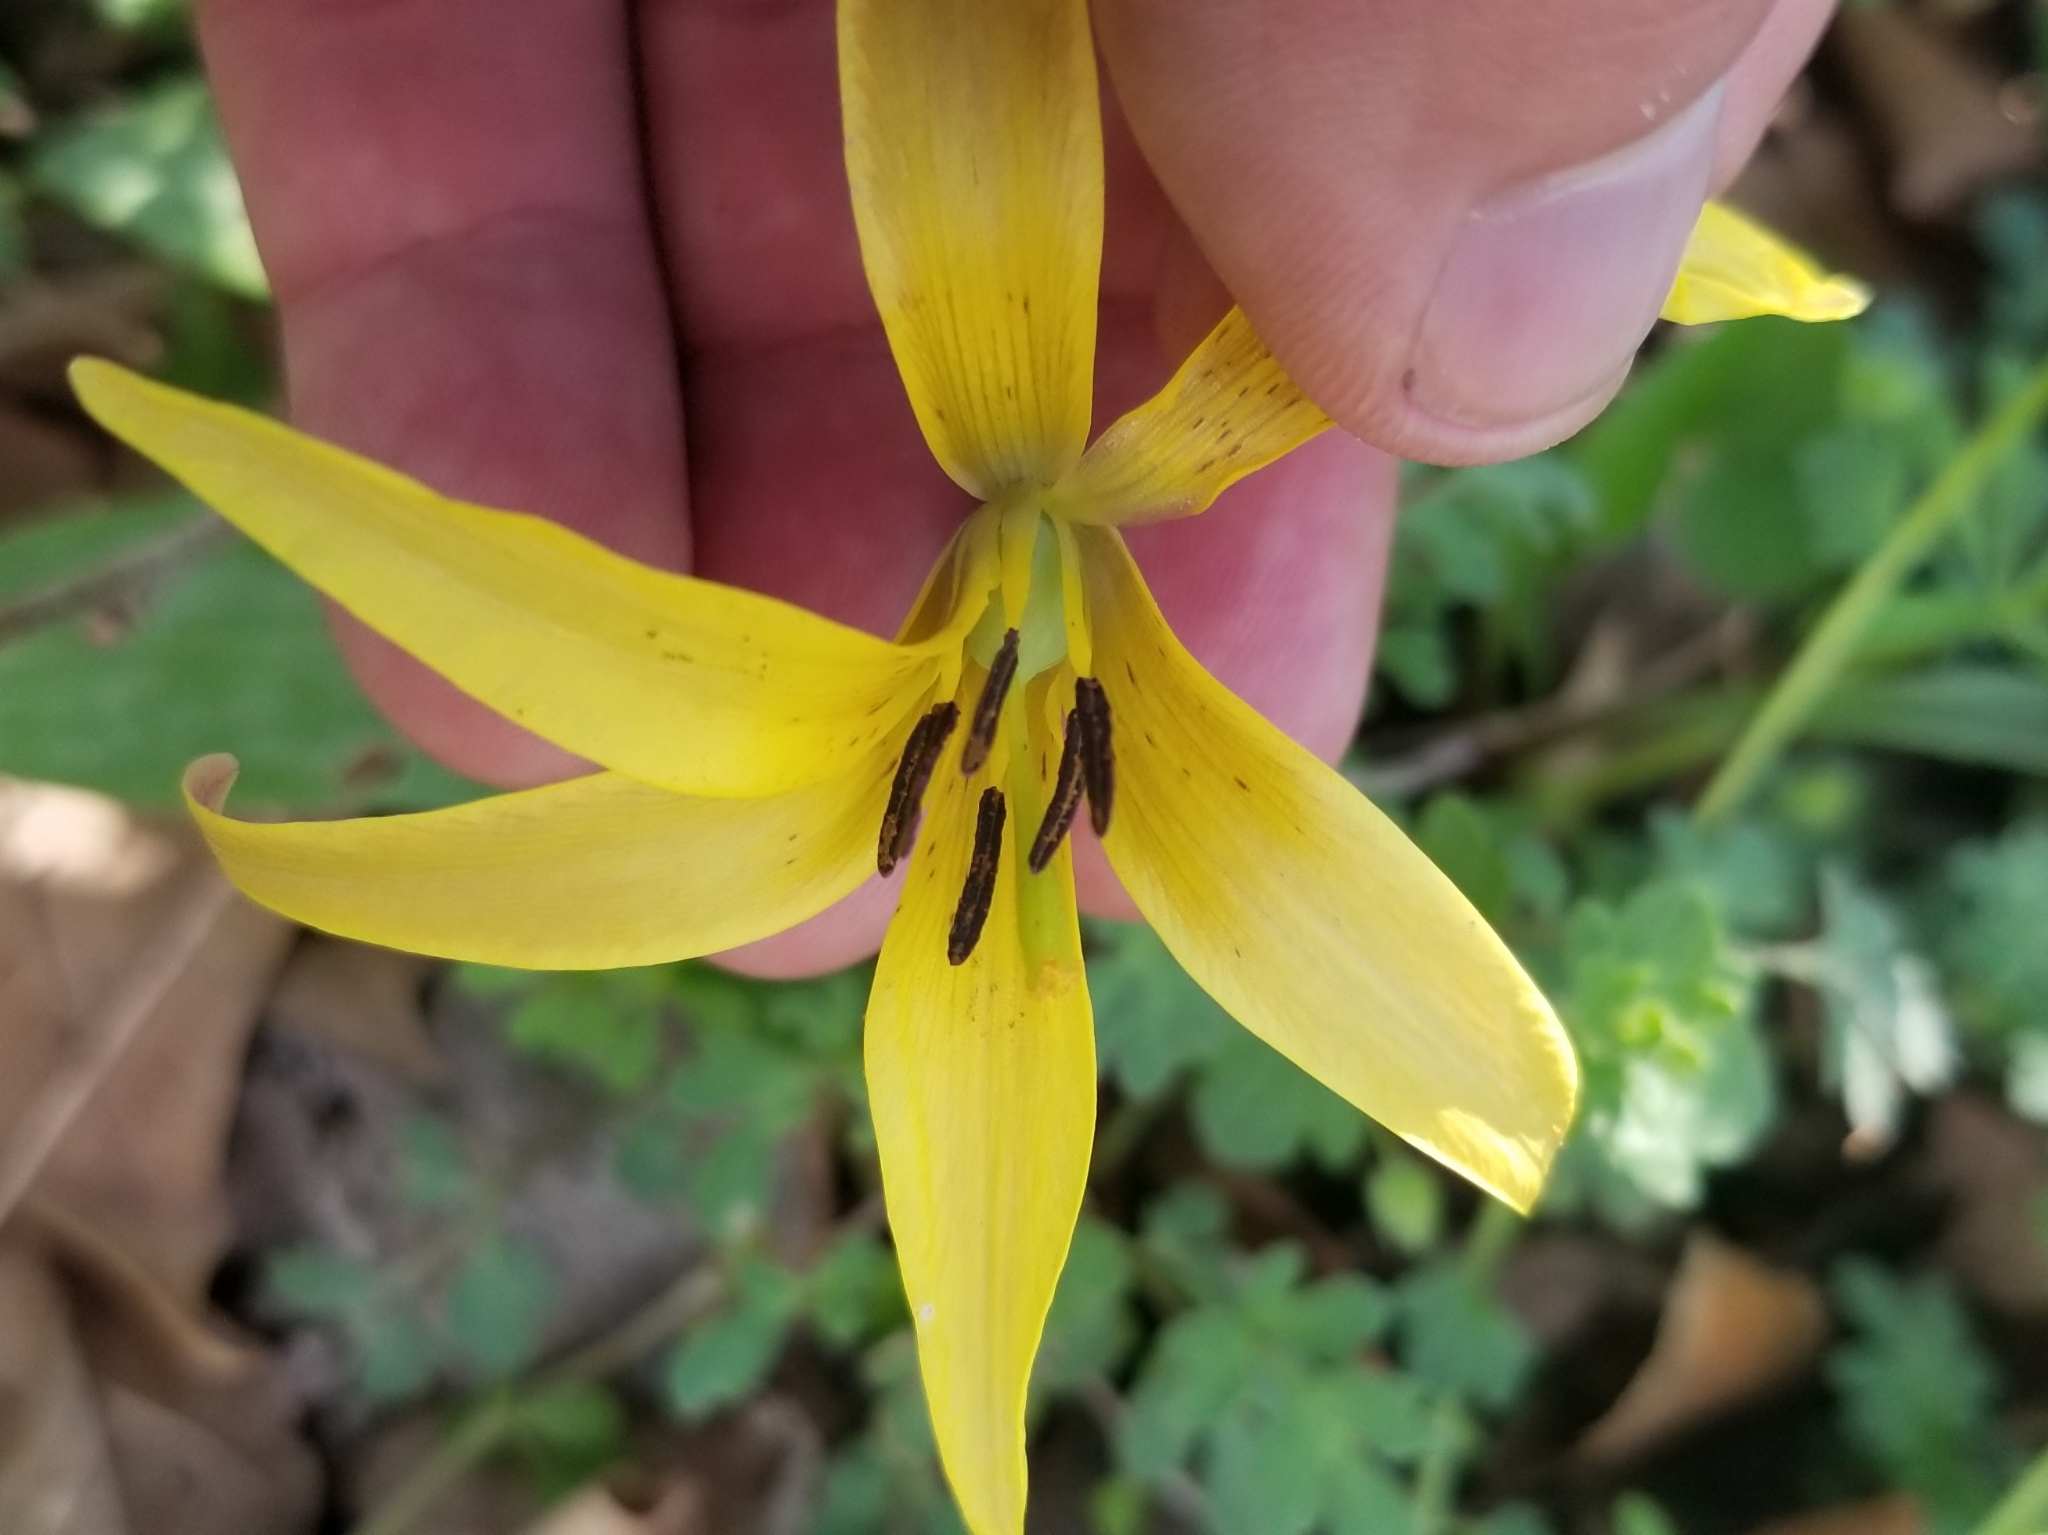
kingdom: Plantae
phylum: Tracheophyta
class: Liliopsida
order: Liliales
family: Liliaceae
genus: Erythronium
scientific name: Erythronium americanum
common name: Yellow adder's-tongue
